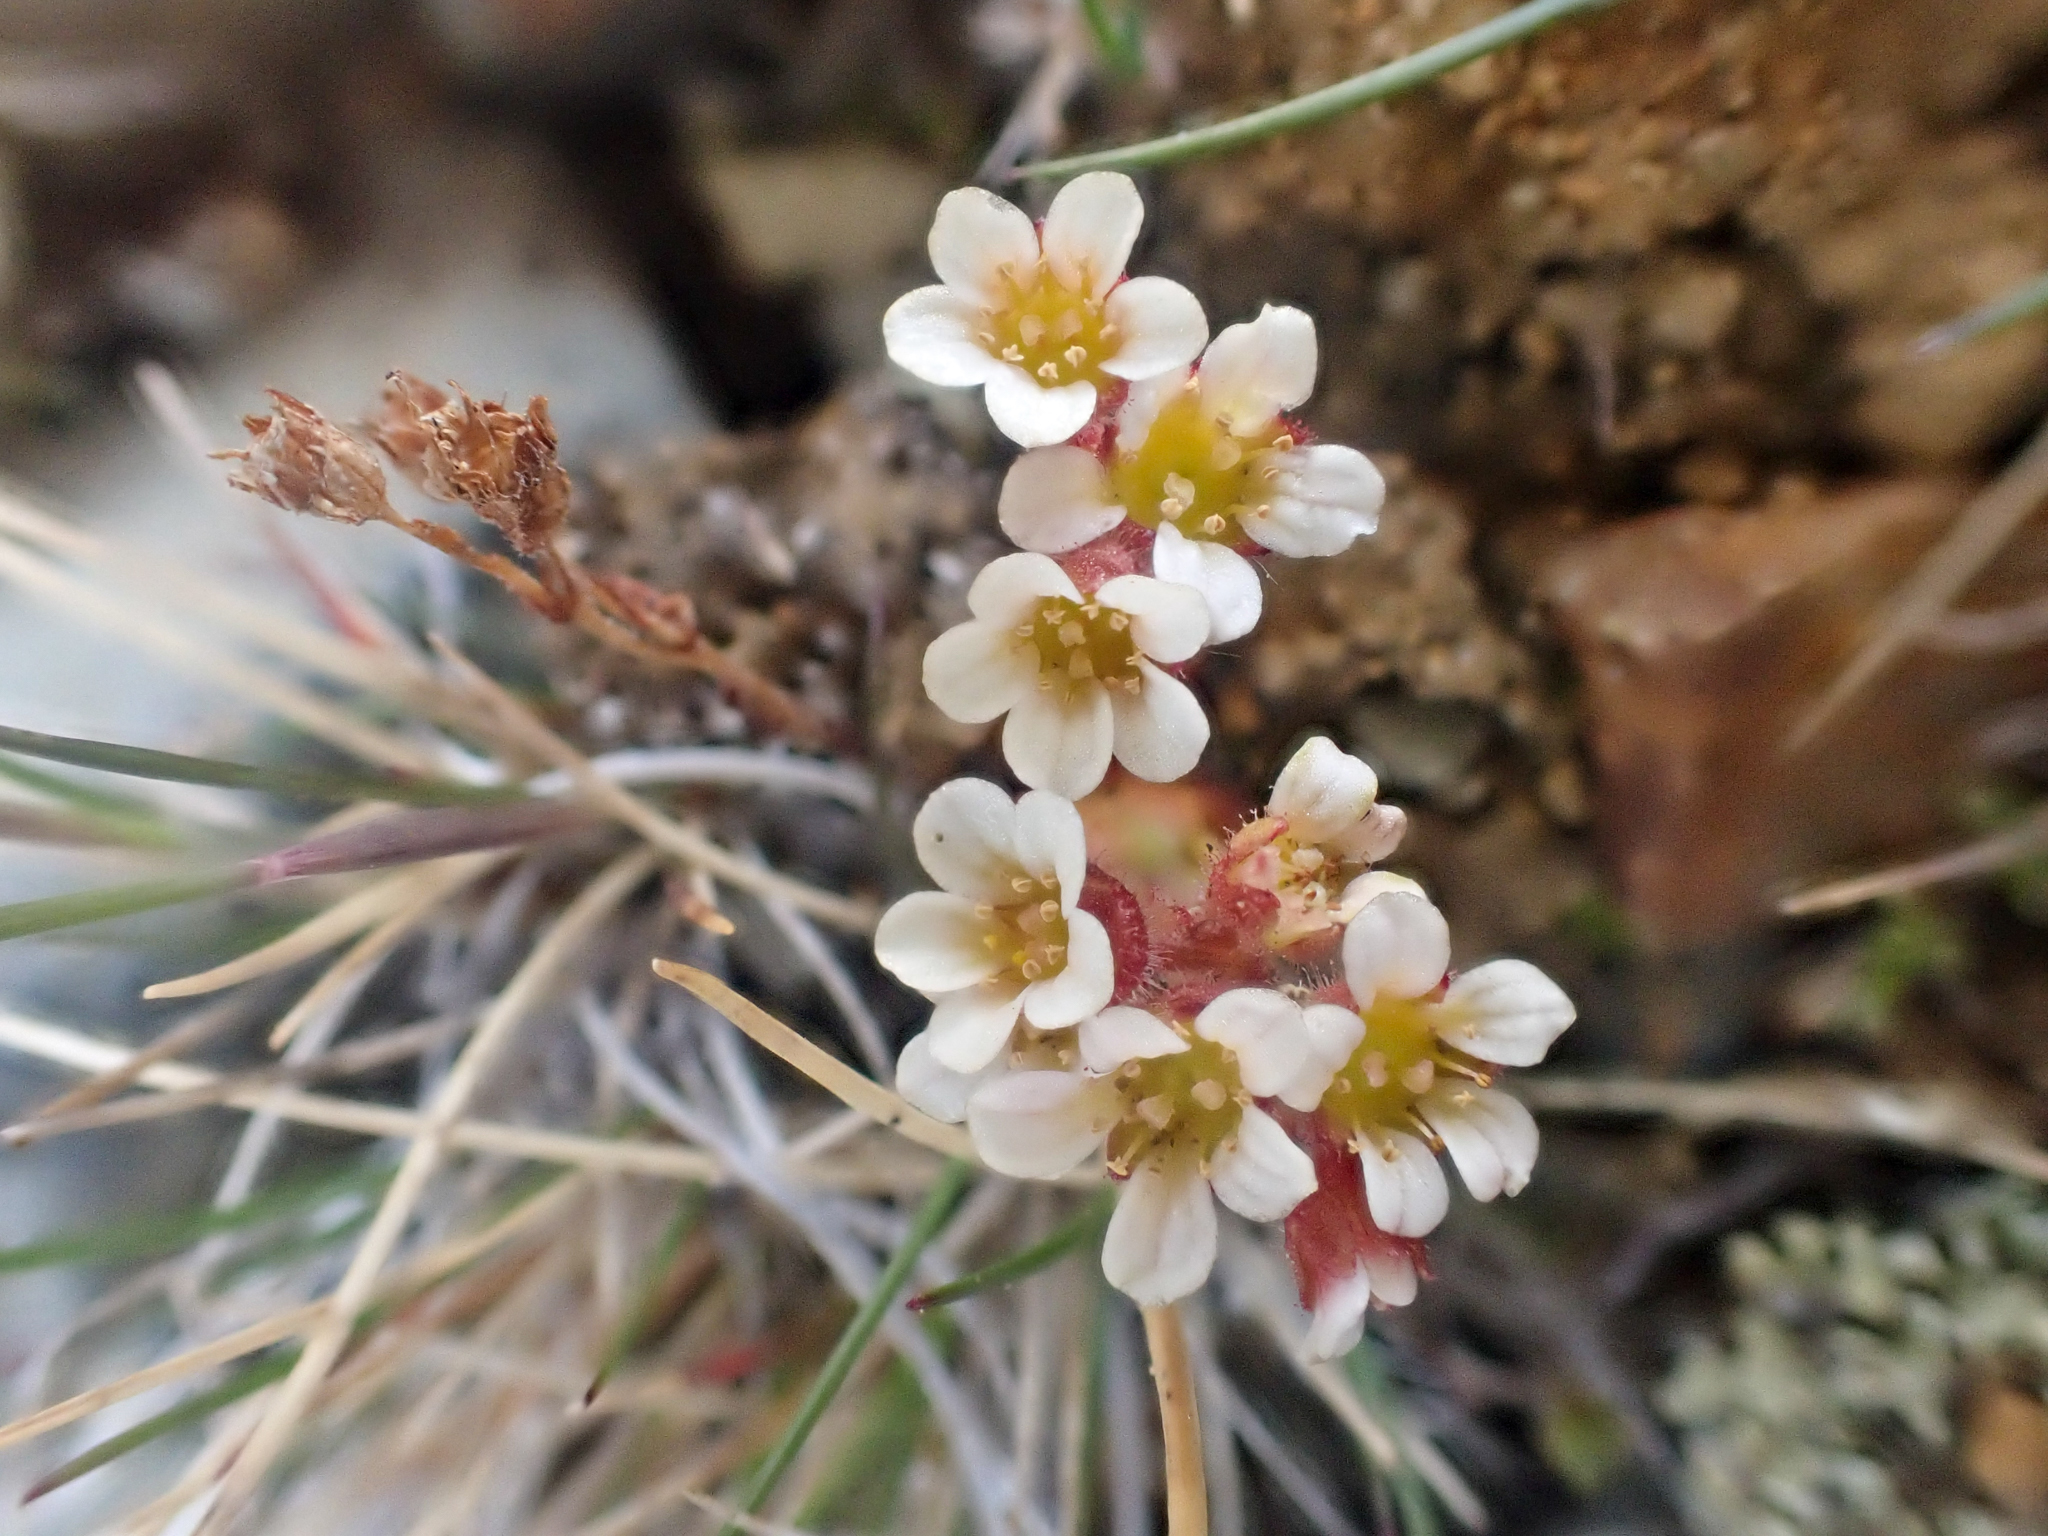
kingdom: Plantae
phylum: Tracheophyta
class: Magnoliopsida
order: Saxifragales
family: Saxifragaceae
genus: Saxifraga
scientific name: Saxifraga adscendens
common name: Ascending saxifrage
